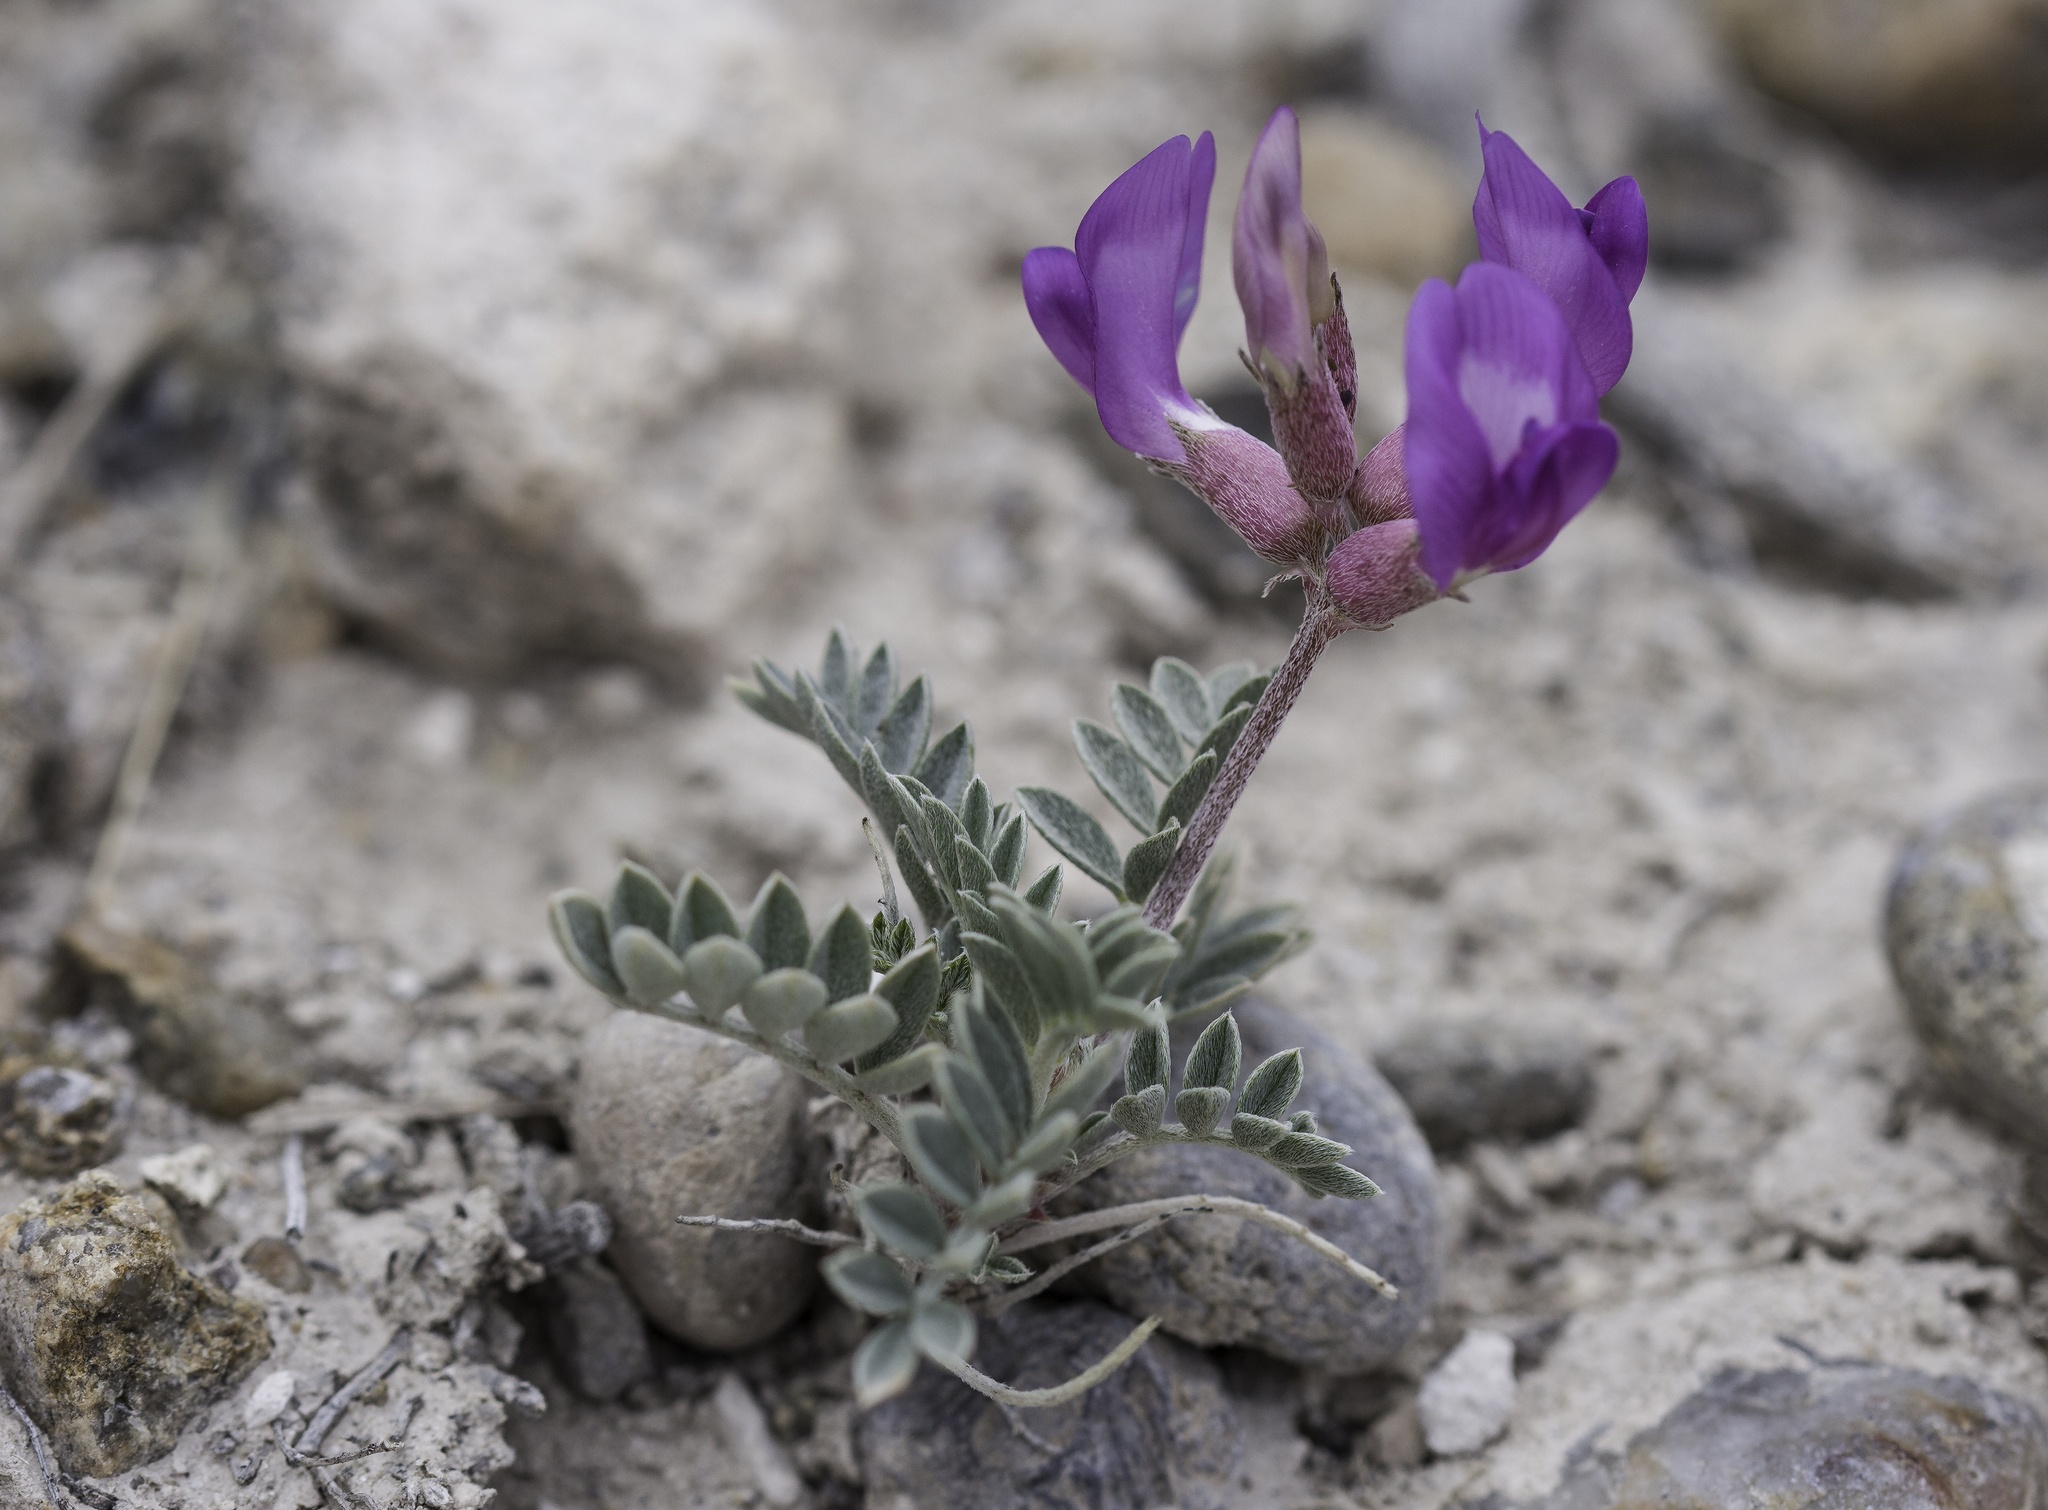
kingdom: Plantae
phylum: Tracheophyta
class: Magnoliopsida
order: Fabales
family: Fabaceae
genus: Astragalus
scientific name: Astragalus missouriensis
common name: Missouri milk-vetch
